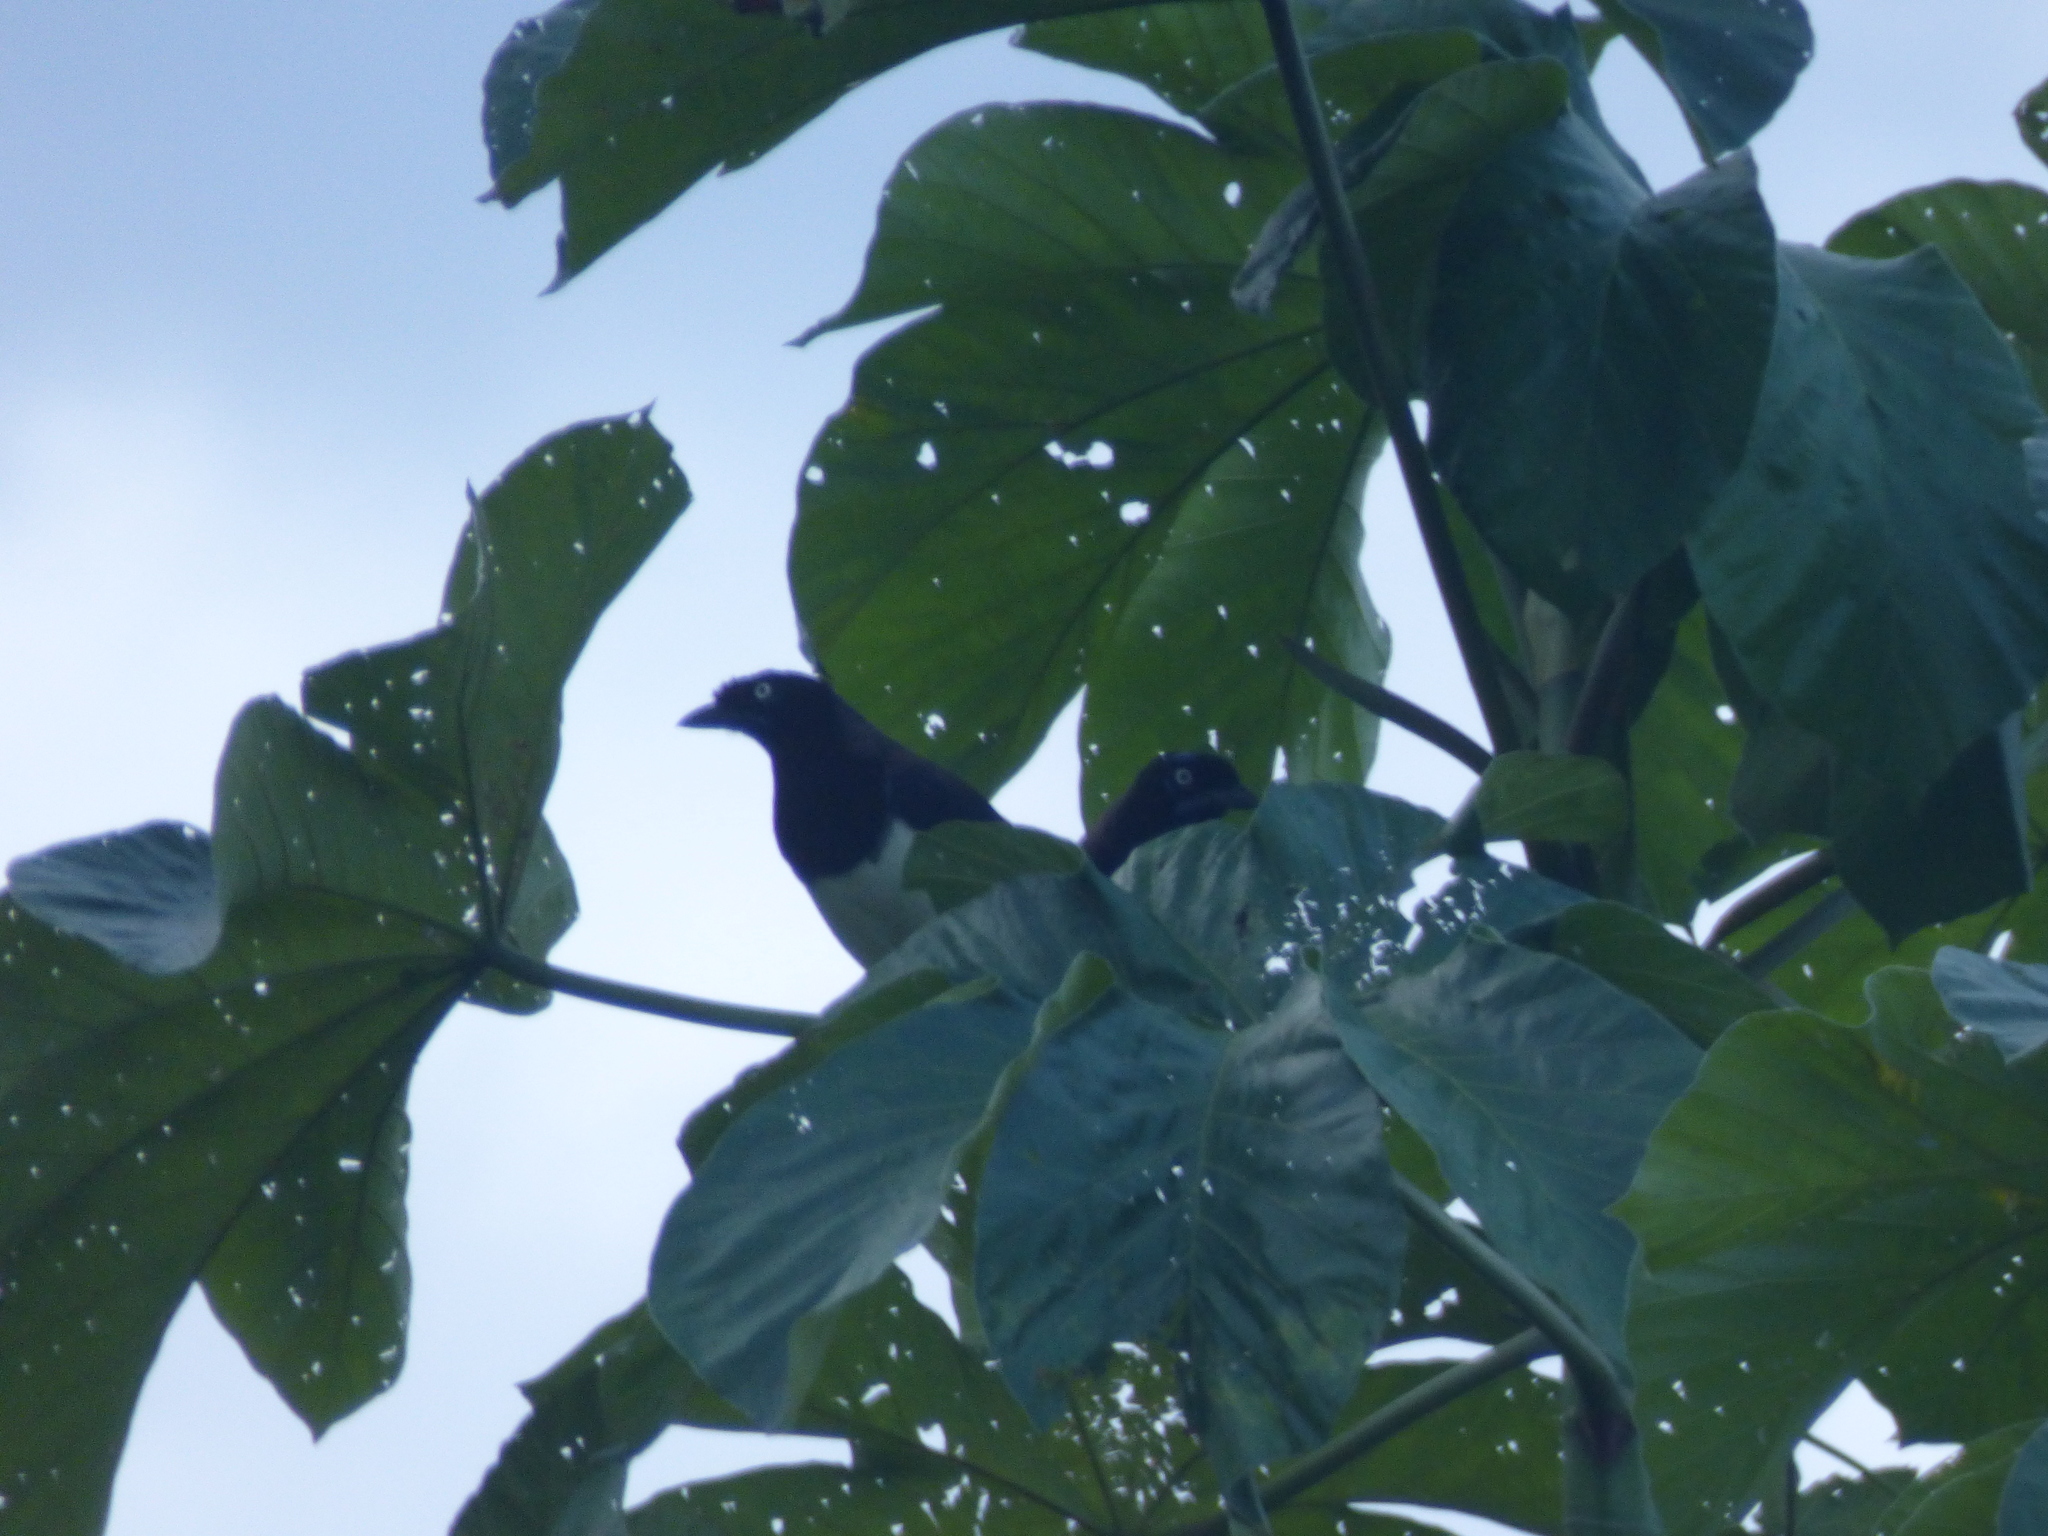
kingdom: Animalia
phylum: Chordata
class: Aves
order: Passeriformes
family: Corvidae
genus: Cyanocorax
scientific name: Cyanocorax affinis
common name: Black-chested jay
